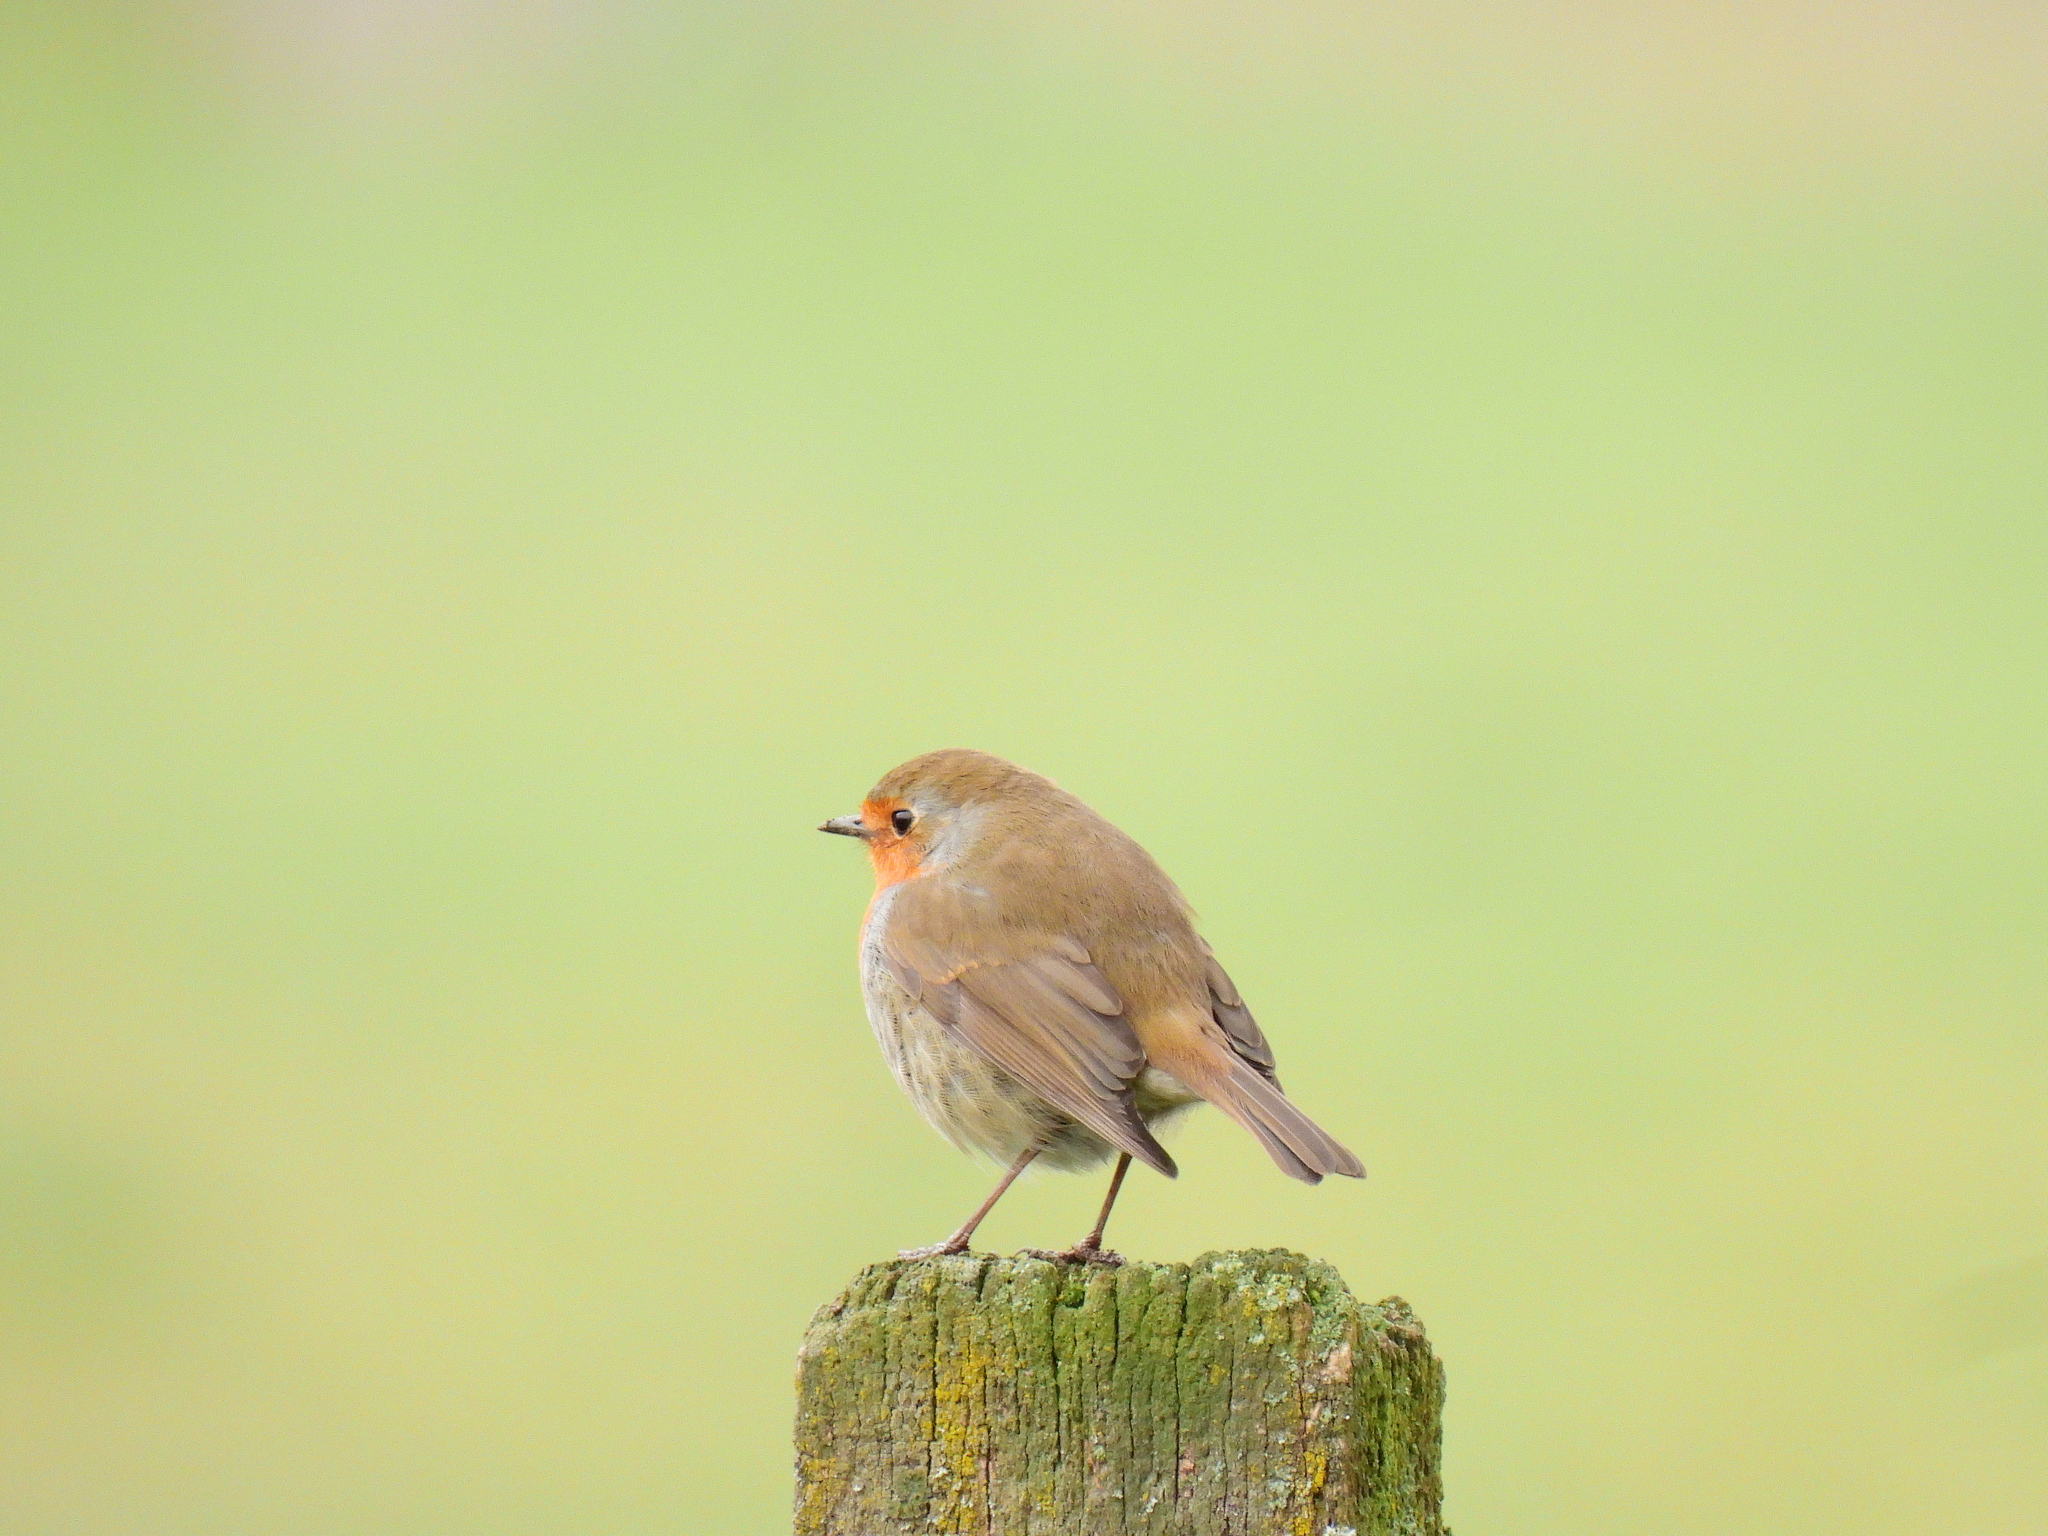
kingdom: Animalia
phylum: Chordata
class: Aves
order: Passeriformes
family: Muscicapidae
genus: Erithacus
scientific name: Erithacus rubecula
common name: European robin
